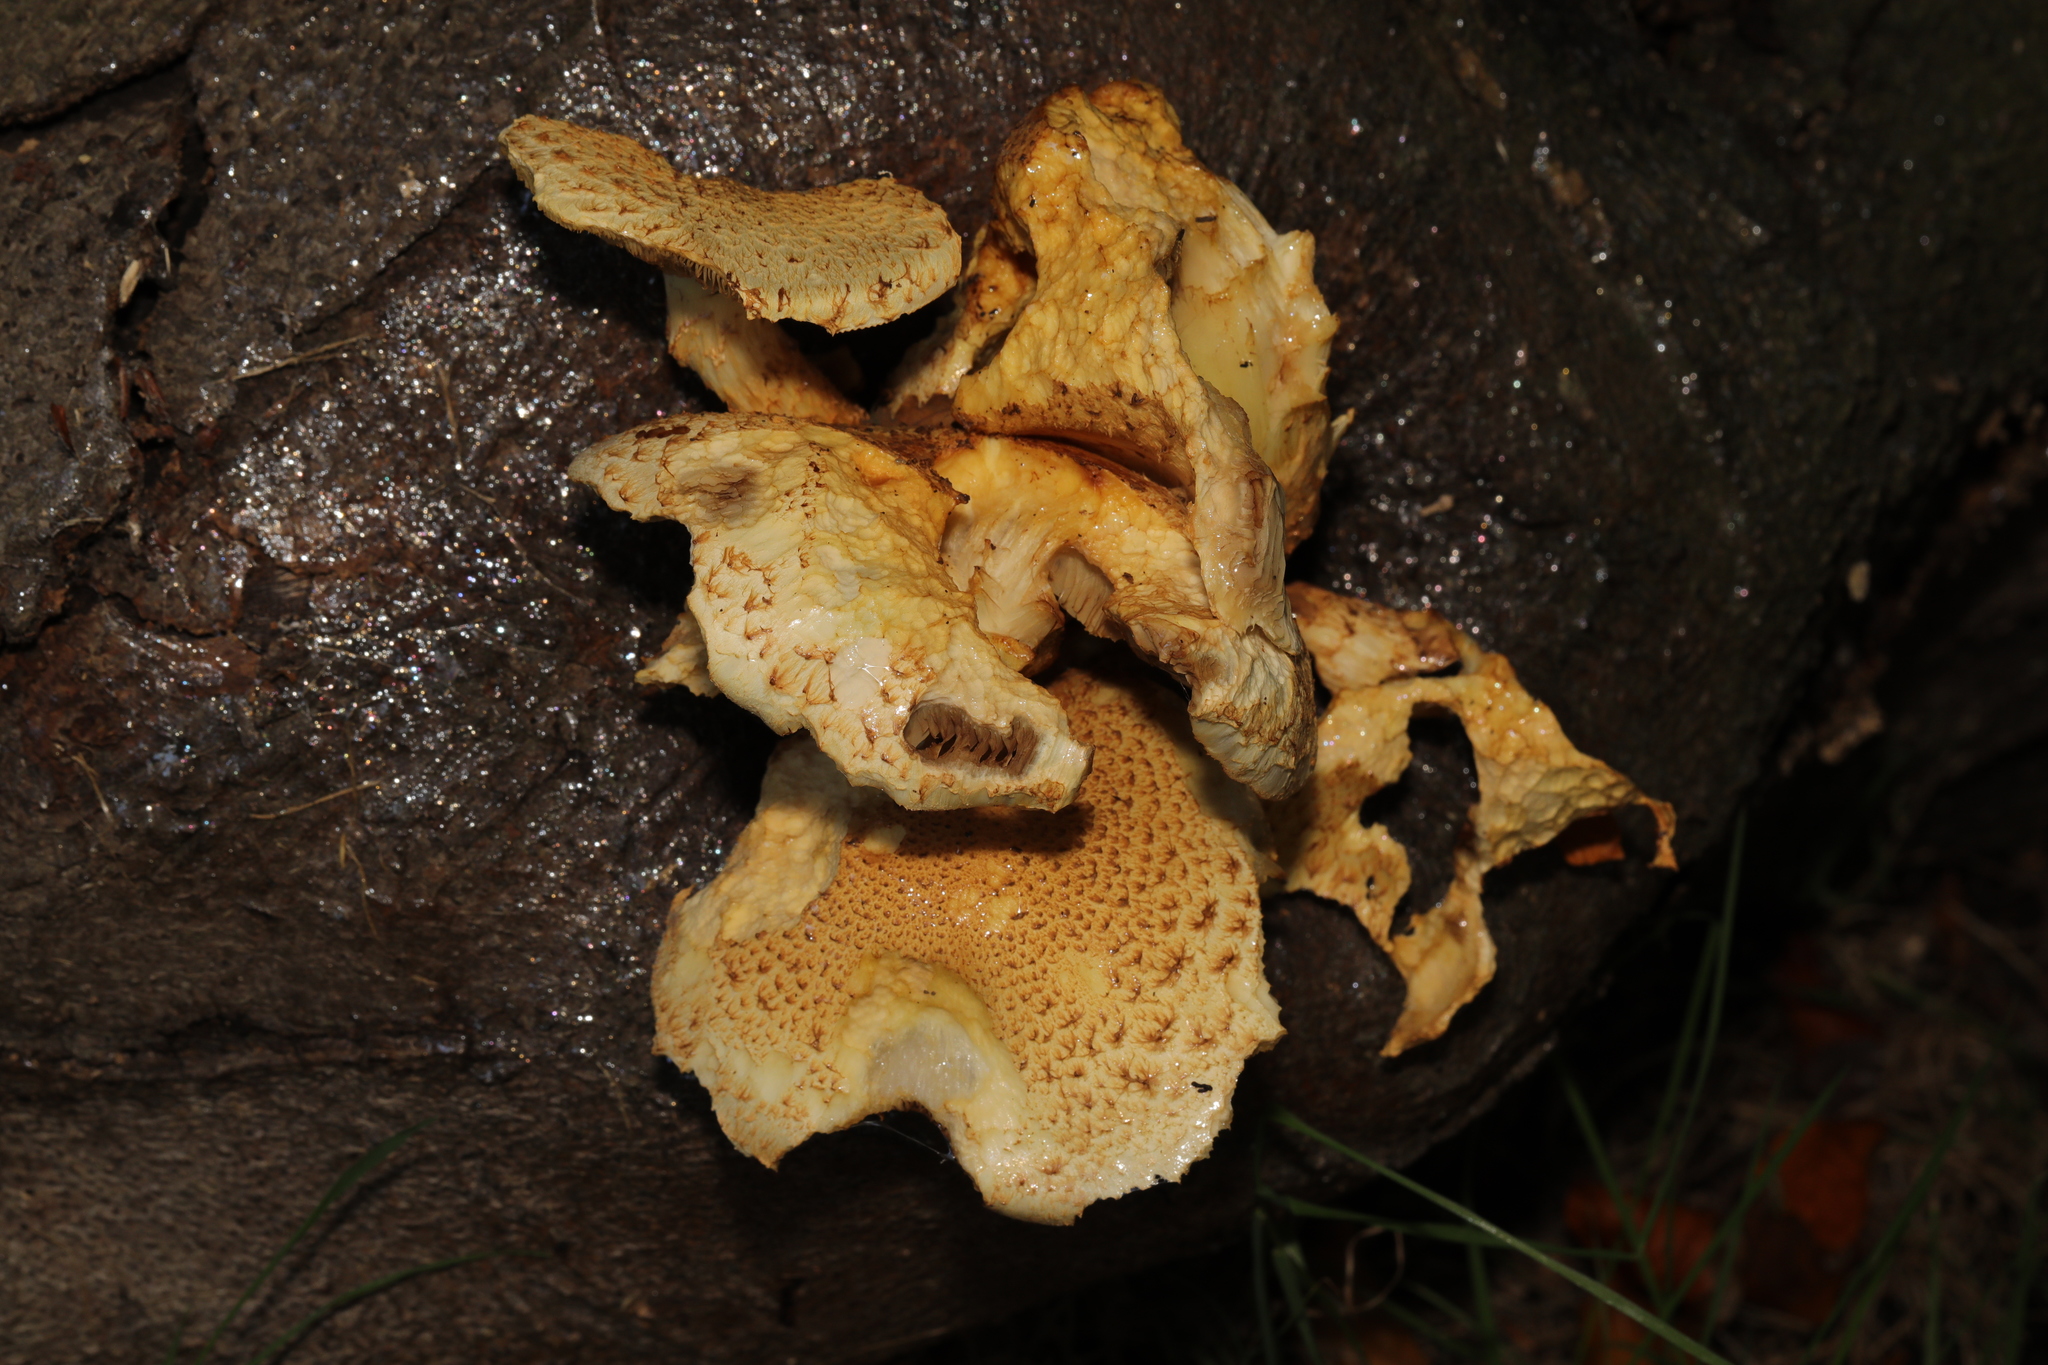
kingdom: Fungi
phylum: Basidiomycota
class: Agaricomycetes
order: Agaricales
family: Strophariaceae
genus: Pholiota
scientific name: Pholiota
